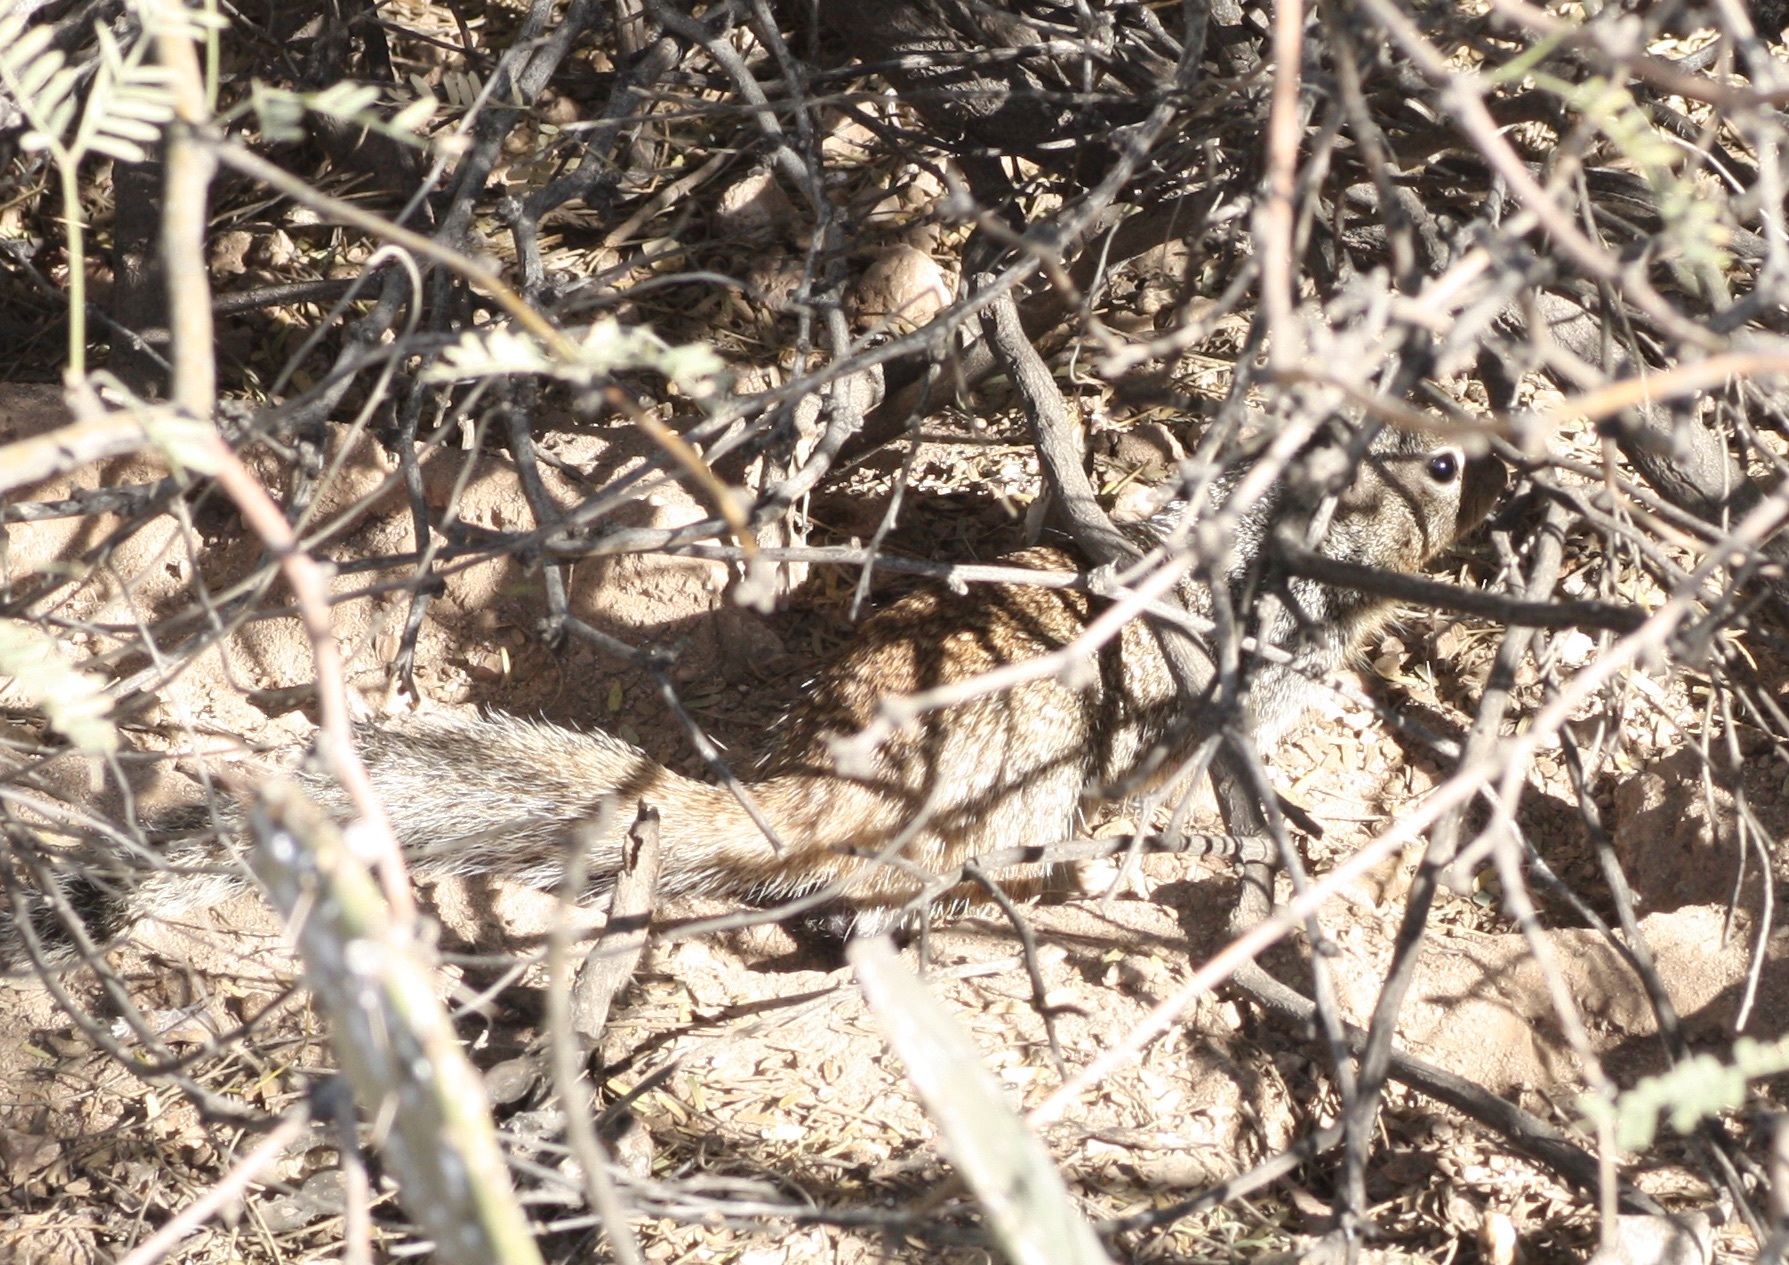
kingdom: Animalia
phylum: Chordata
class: Mammalia
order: Rodentia
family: Sciuridae
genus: Otospermophilus
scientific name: Otospermophilus variegatus
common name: Rock squirrel
